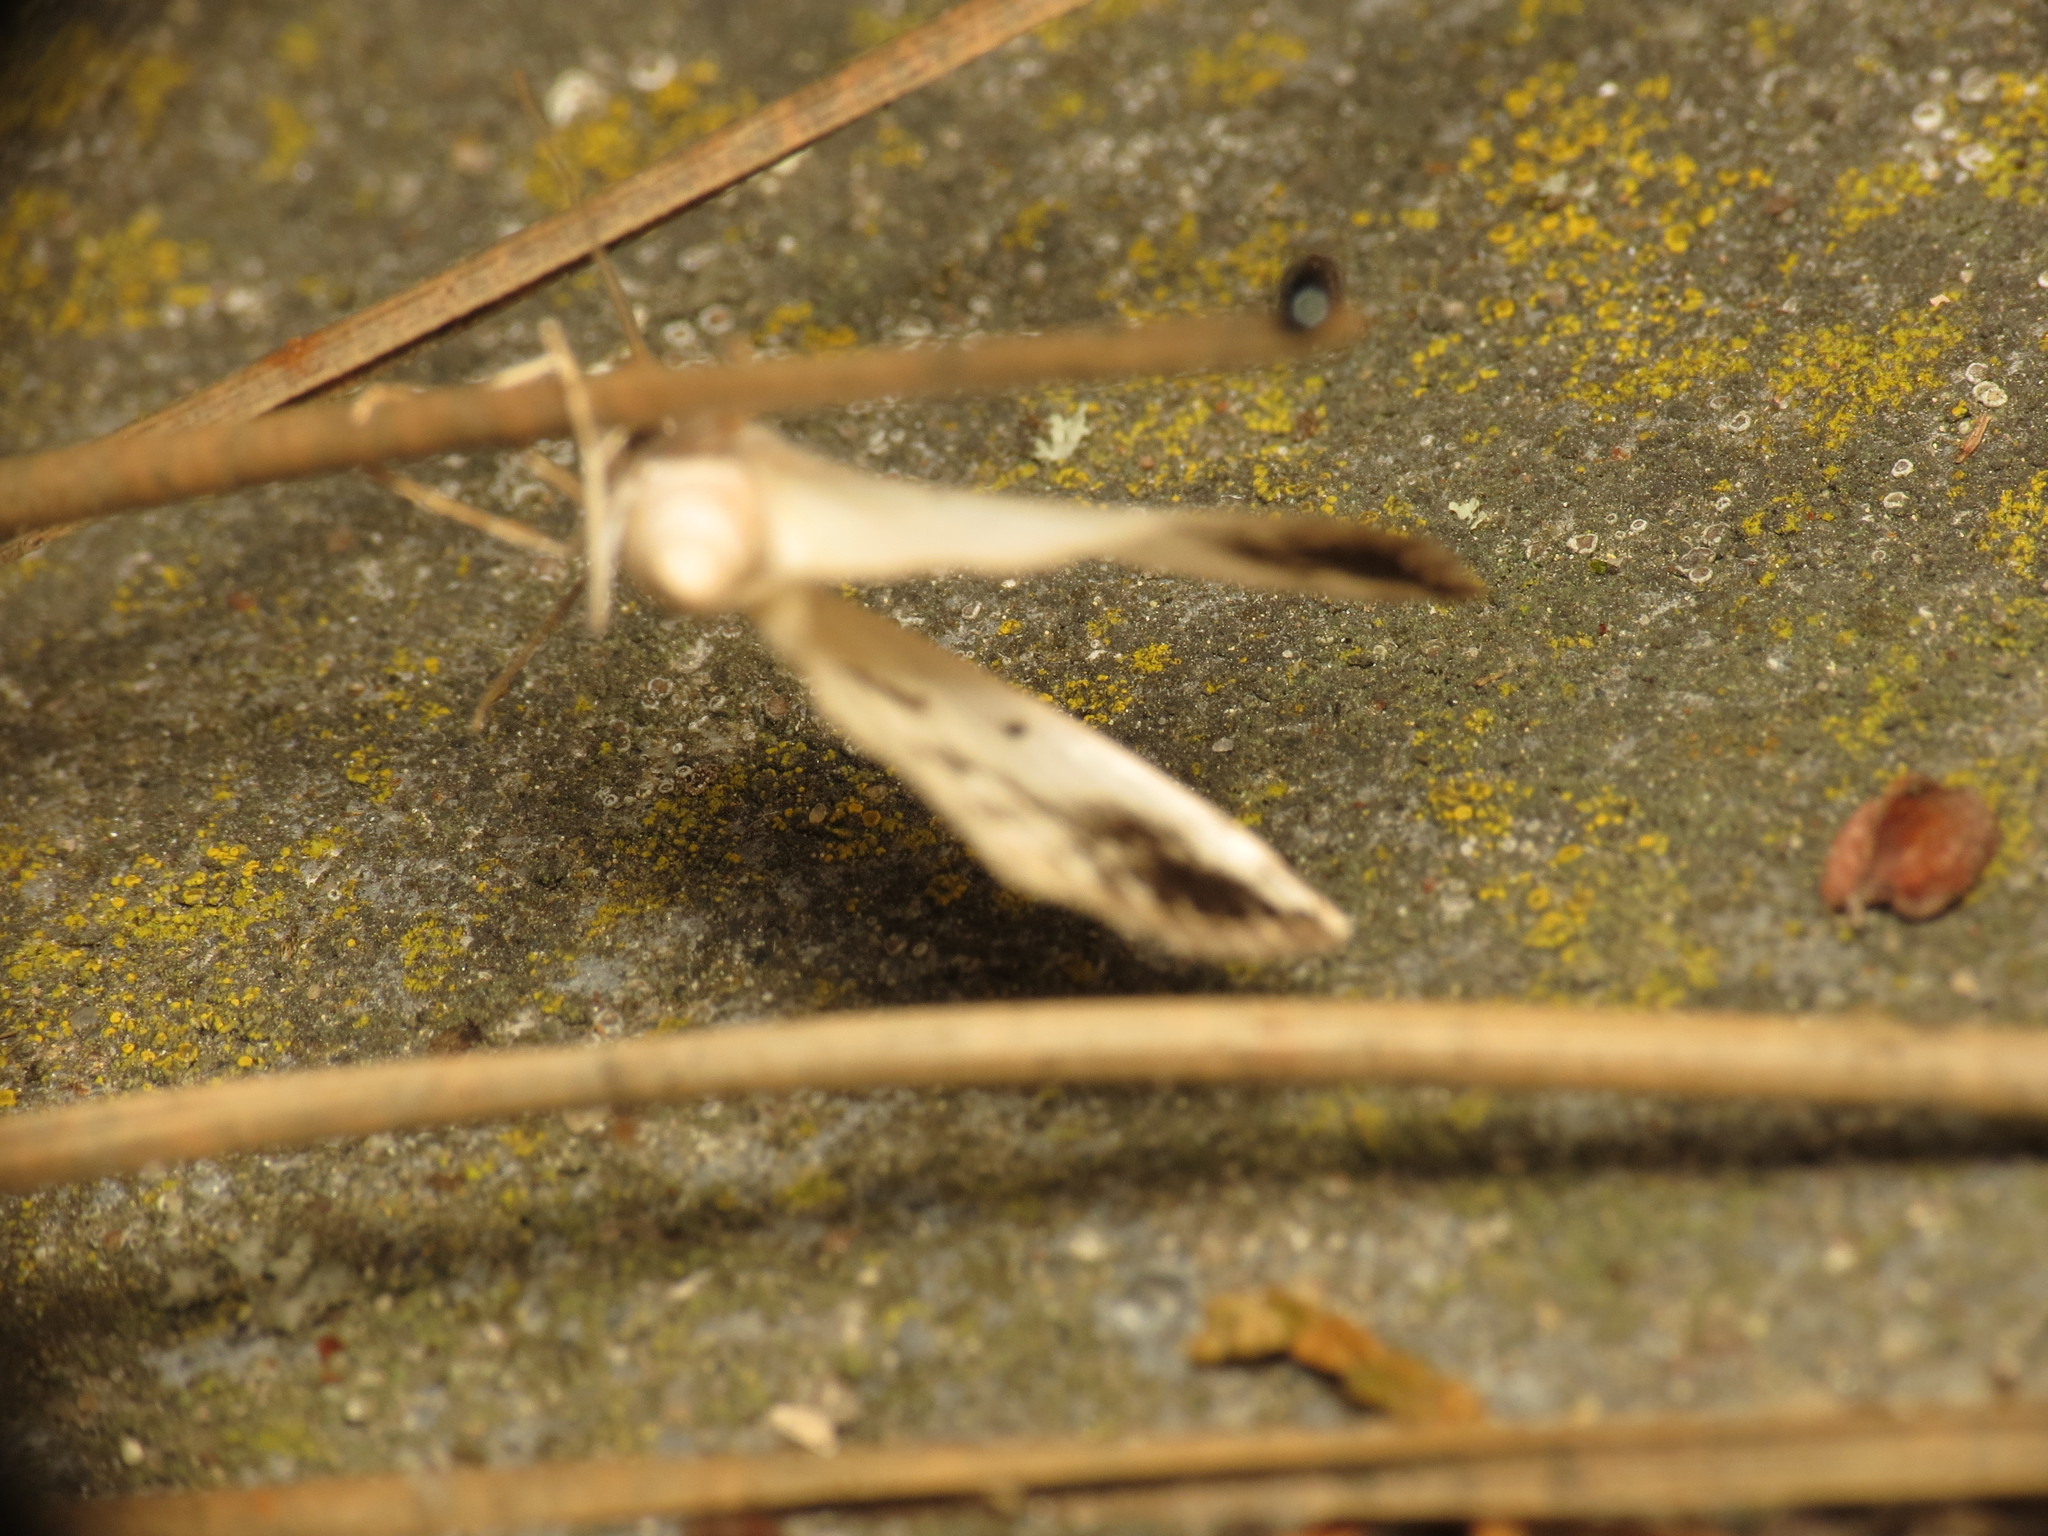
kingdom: Animalia
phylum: Arthropoda
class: Insecta
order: Lepidoptera
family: Geometridae
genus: Lomographa
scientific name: Lomographa temerata
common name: Clouded silver
